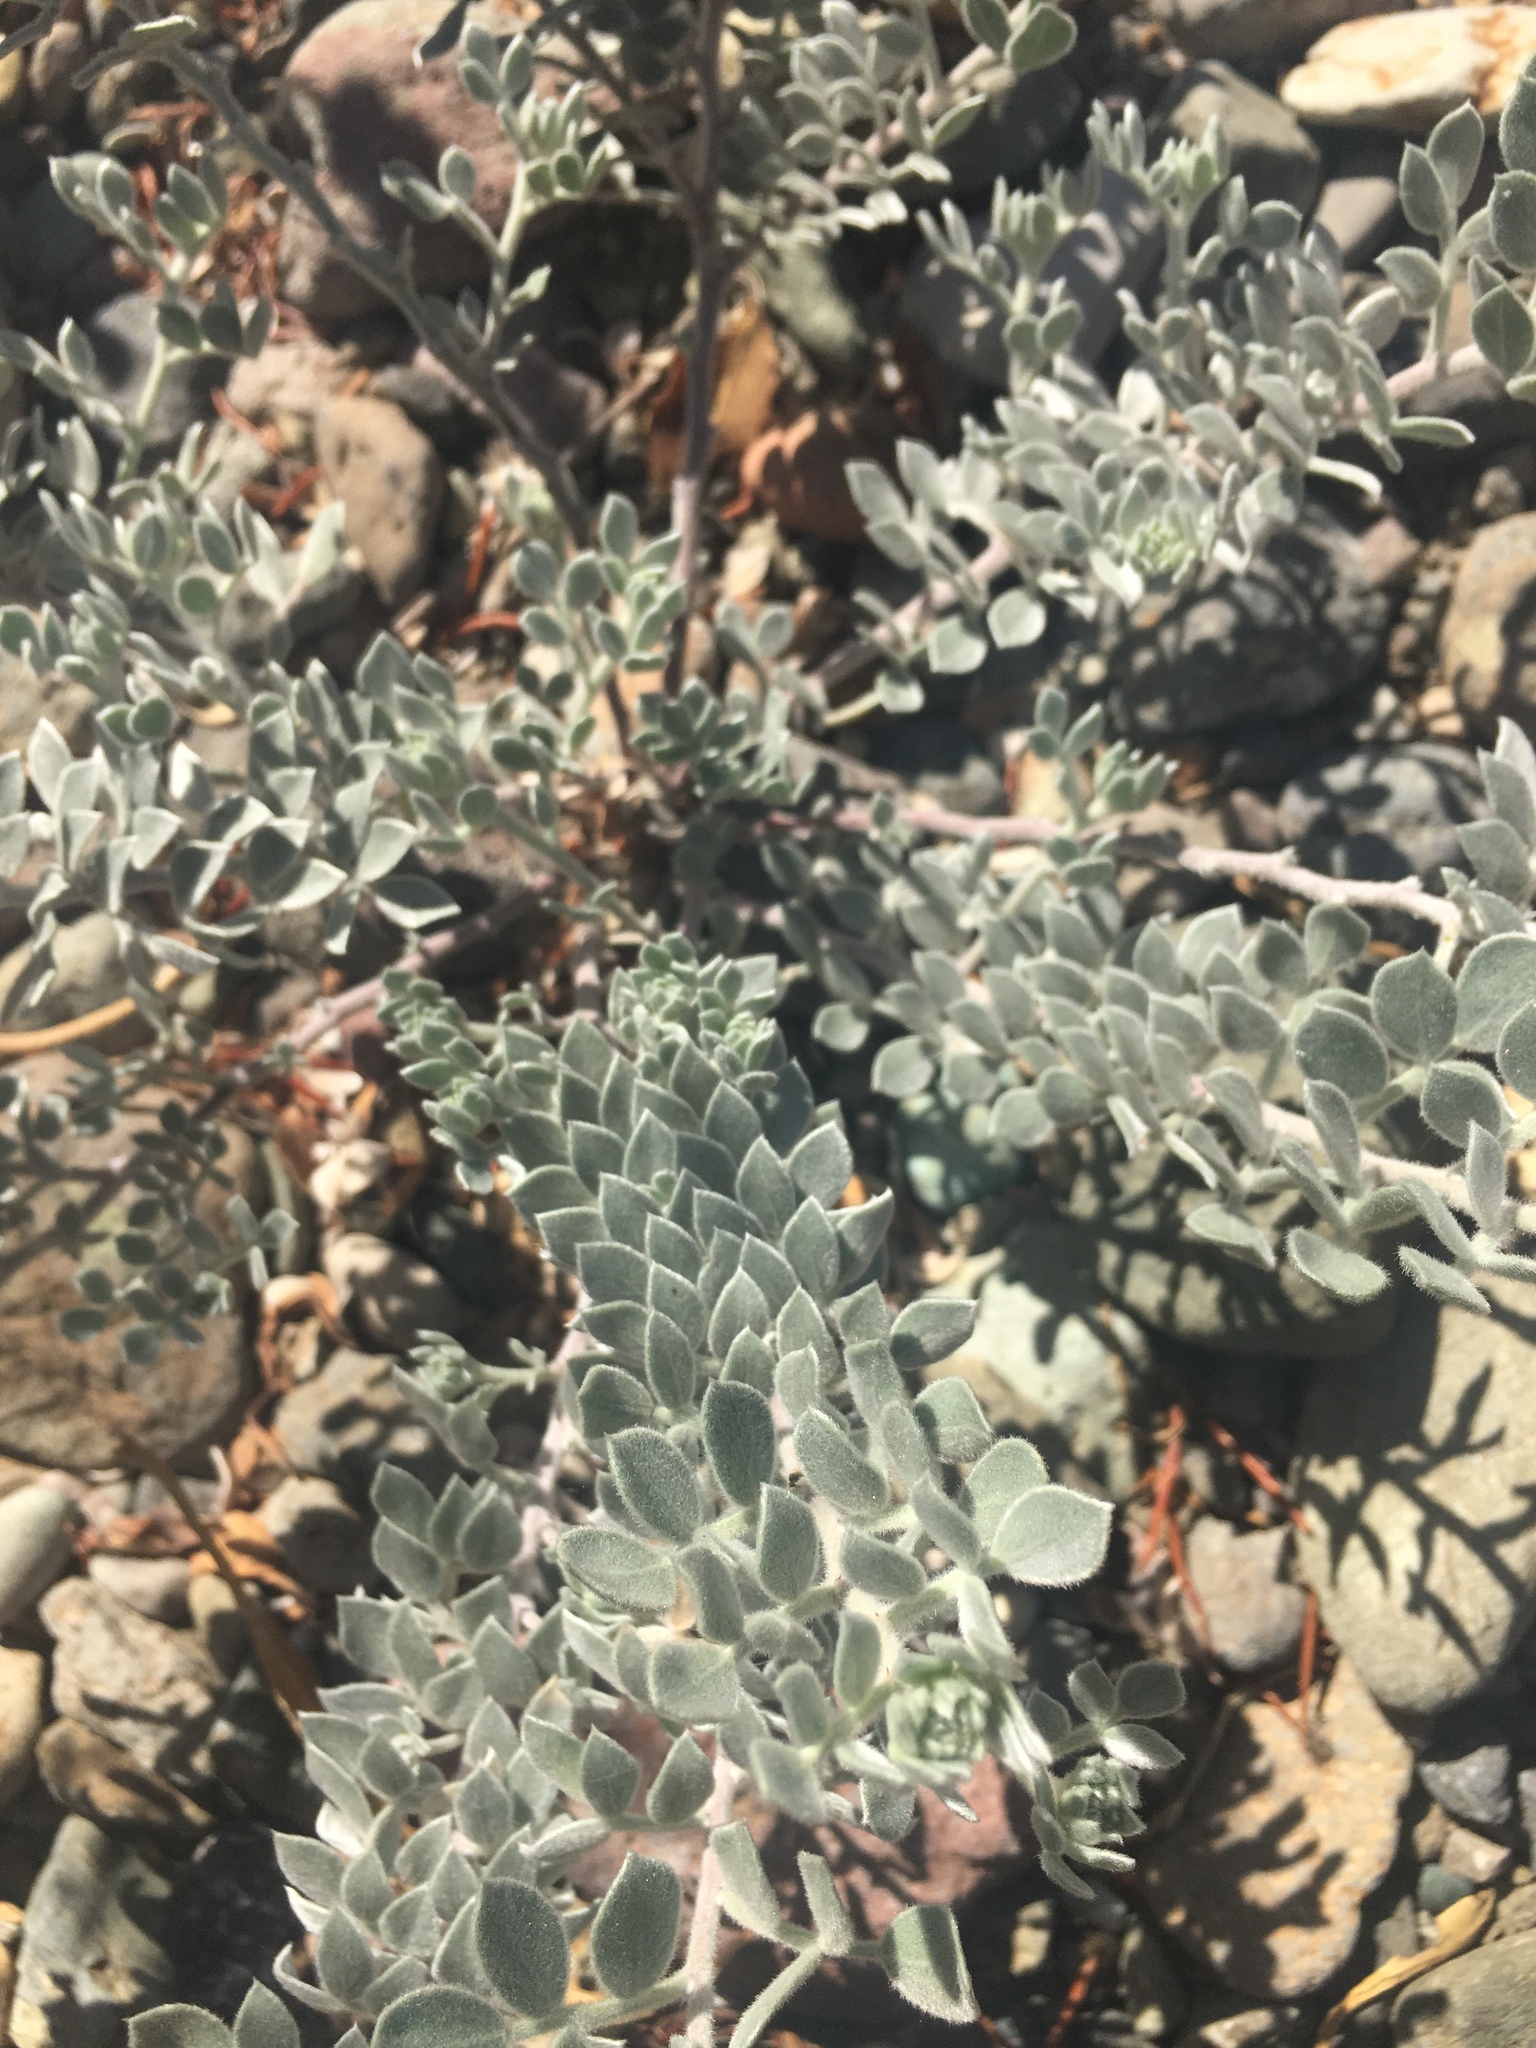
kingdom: Plantae
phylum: Tracheophyta
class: Magnoliopsida
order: Fabales
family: Fabaceae
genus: Acmispon
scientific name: Acmispon argophyllus
